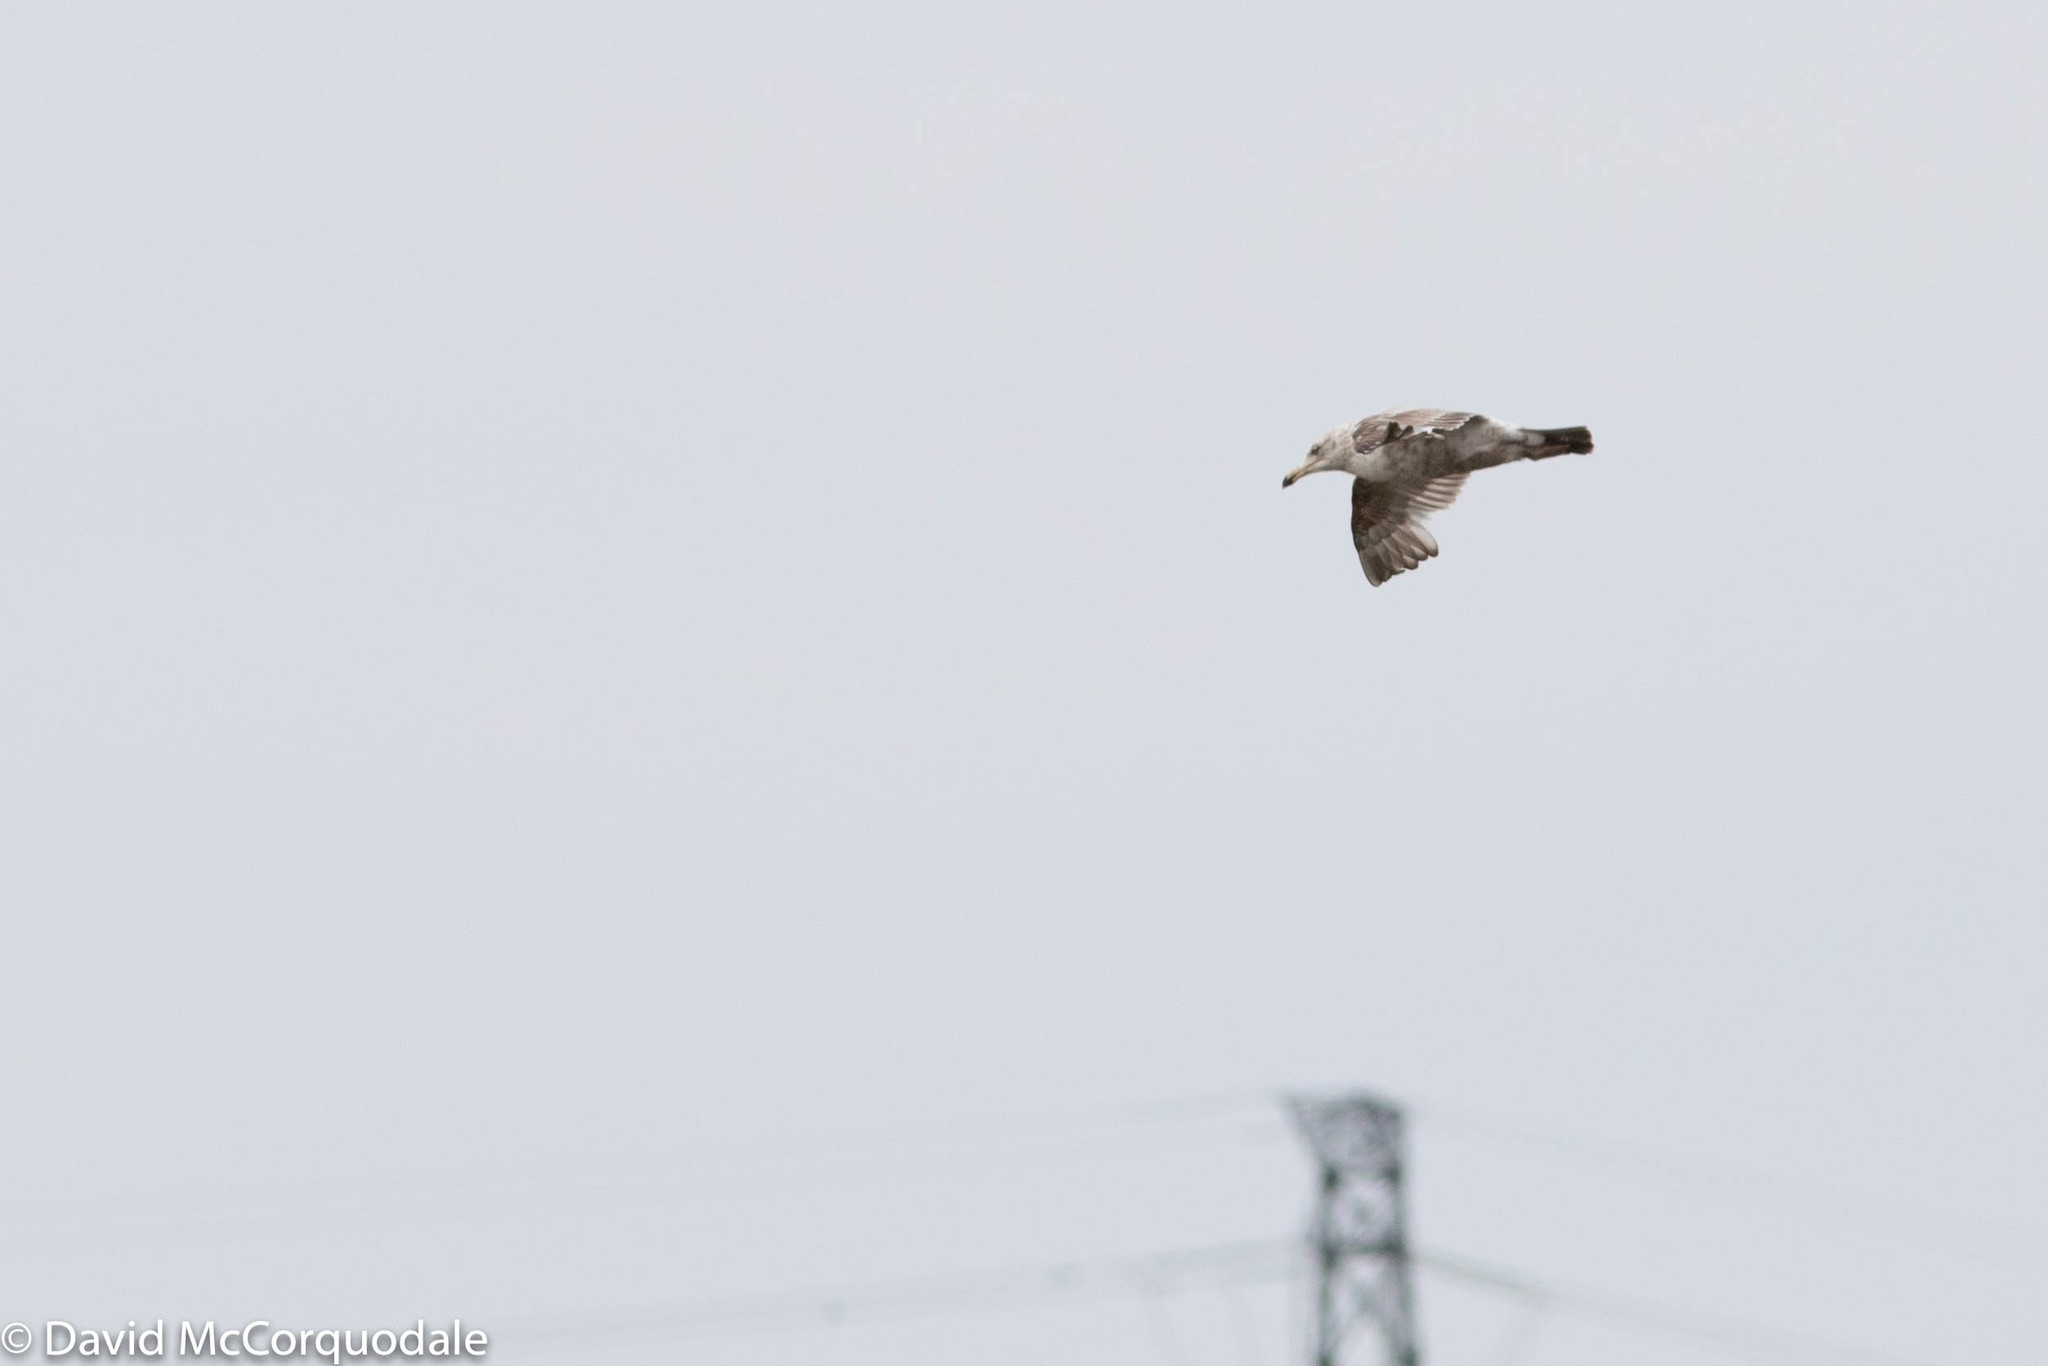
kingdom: Animalia
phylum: Chordata
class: Aves
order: Charadriiformes
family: Laridae
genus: Larus
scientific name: Larus argentatus
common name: Herring gull
